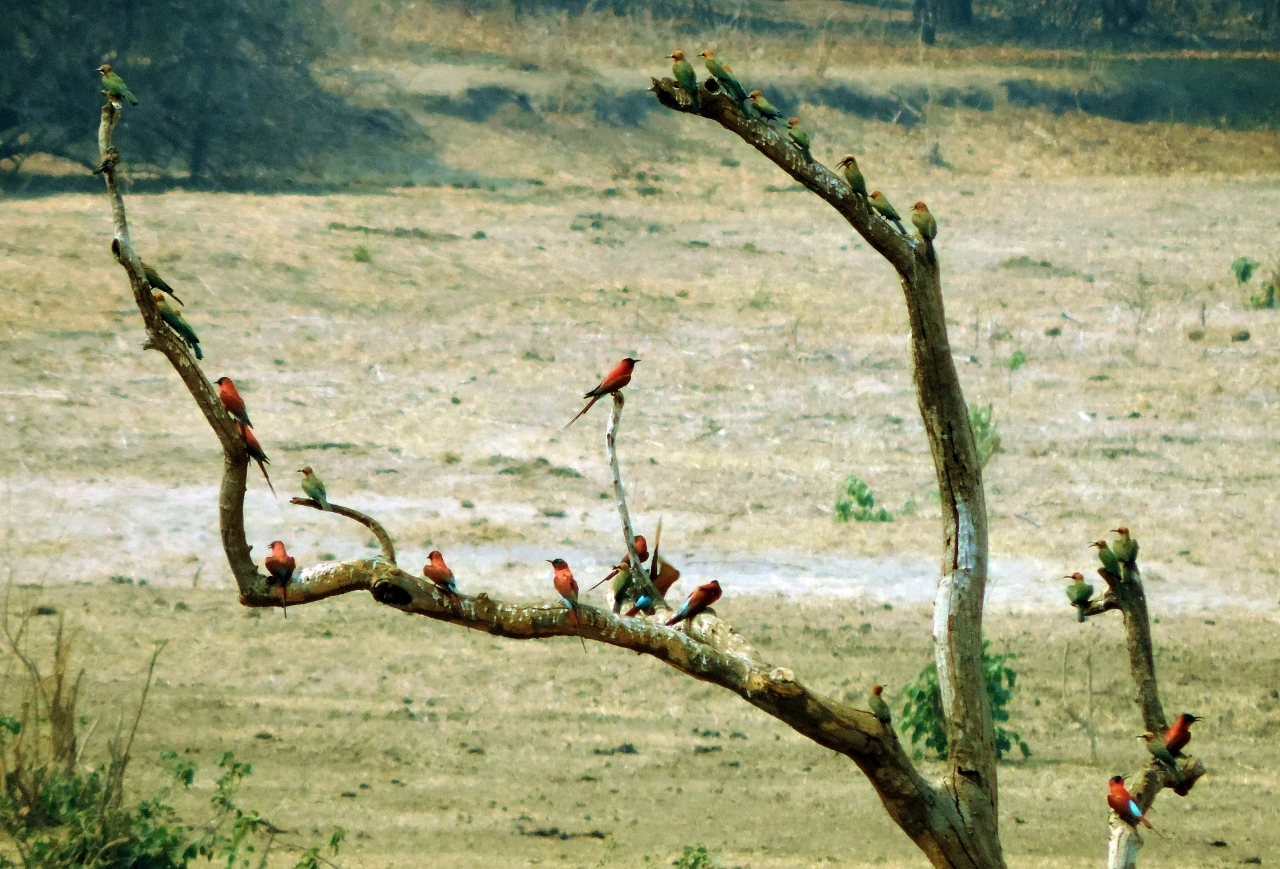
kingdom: Animalia
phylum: Chordata
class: Aves
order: Coraciiformes
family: Meropidae
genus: Merops
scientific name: Merops bullockoides
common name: White-fronted bee-eater
